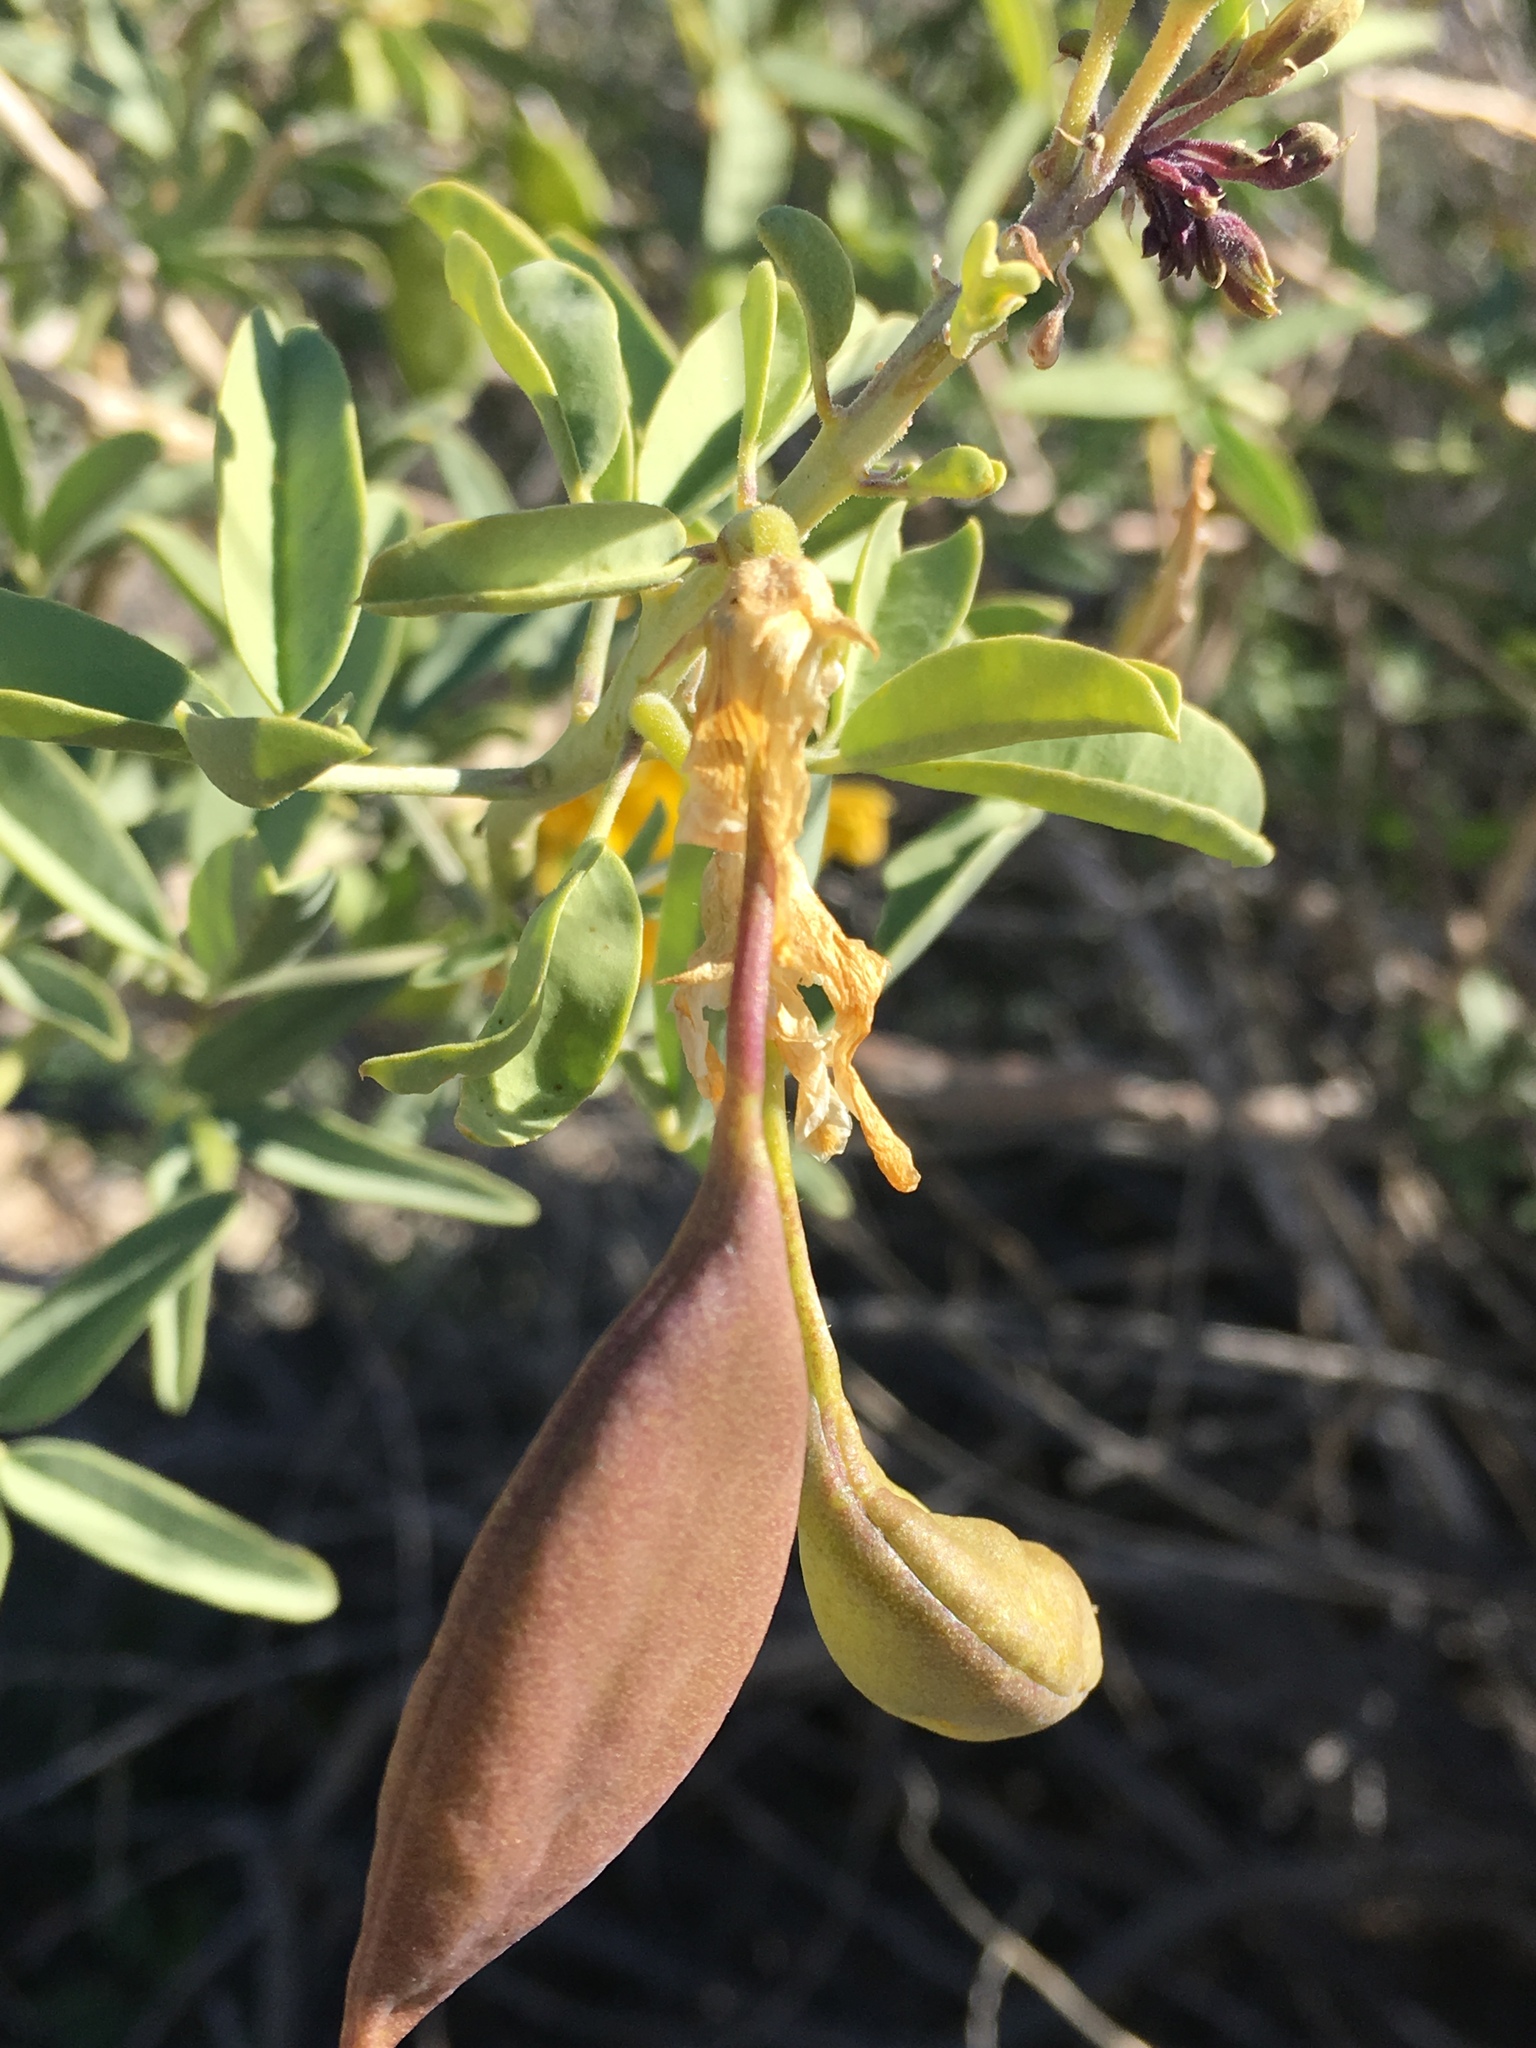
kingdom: Plantae
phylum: Tracheophyta
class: Magnoliopsida
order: Brassicales
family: Cleomaceae
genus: Cleomella
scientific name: Cleomella arborea
